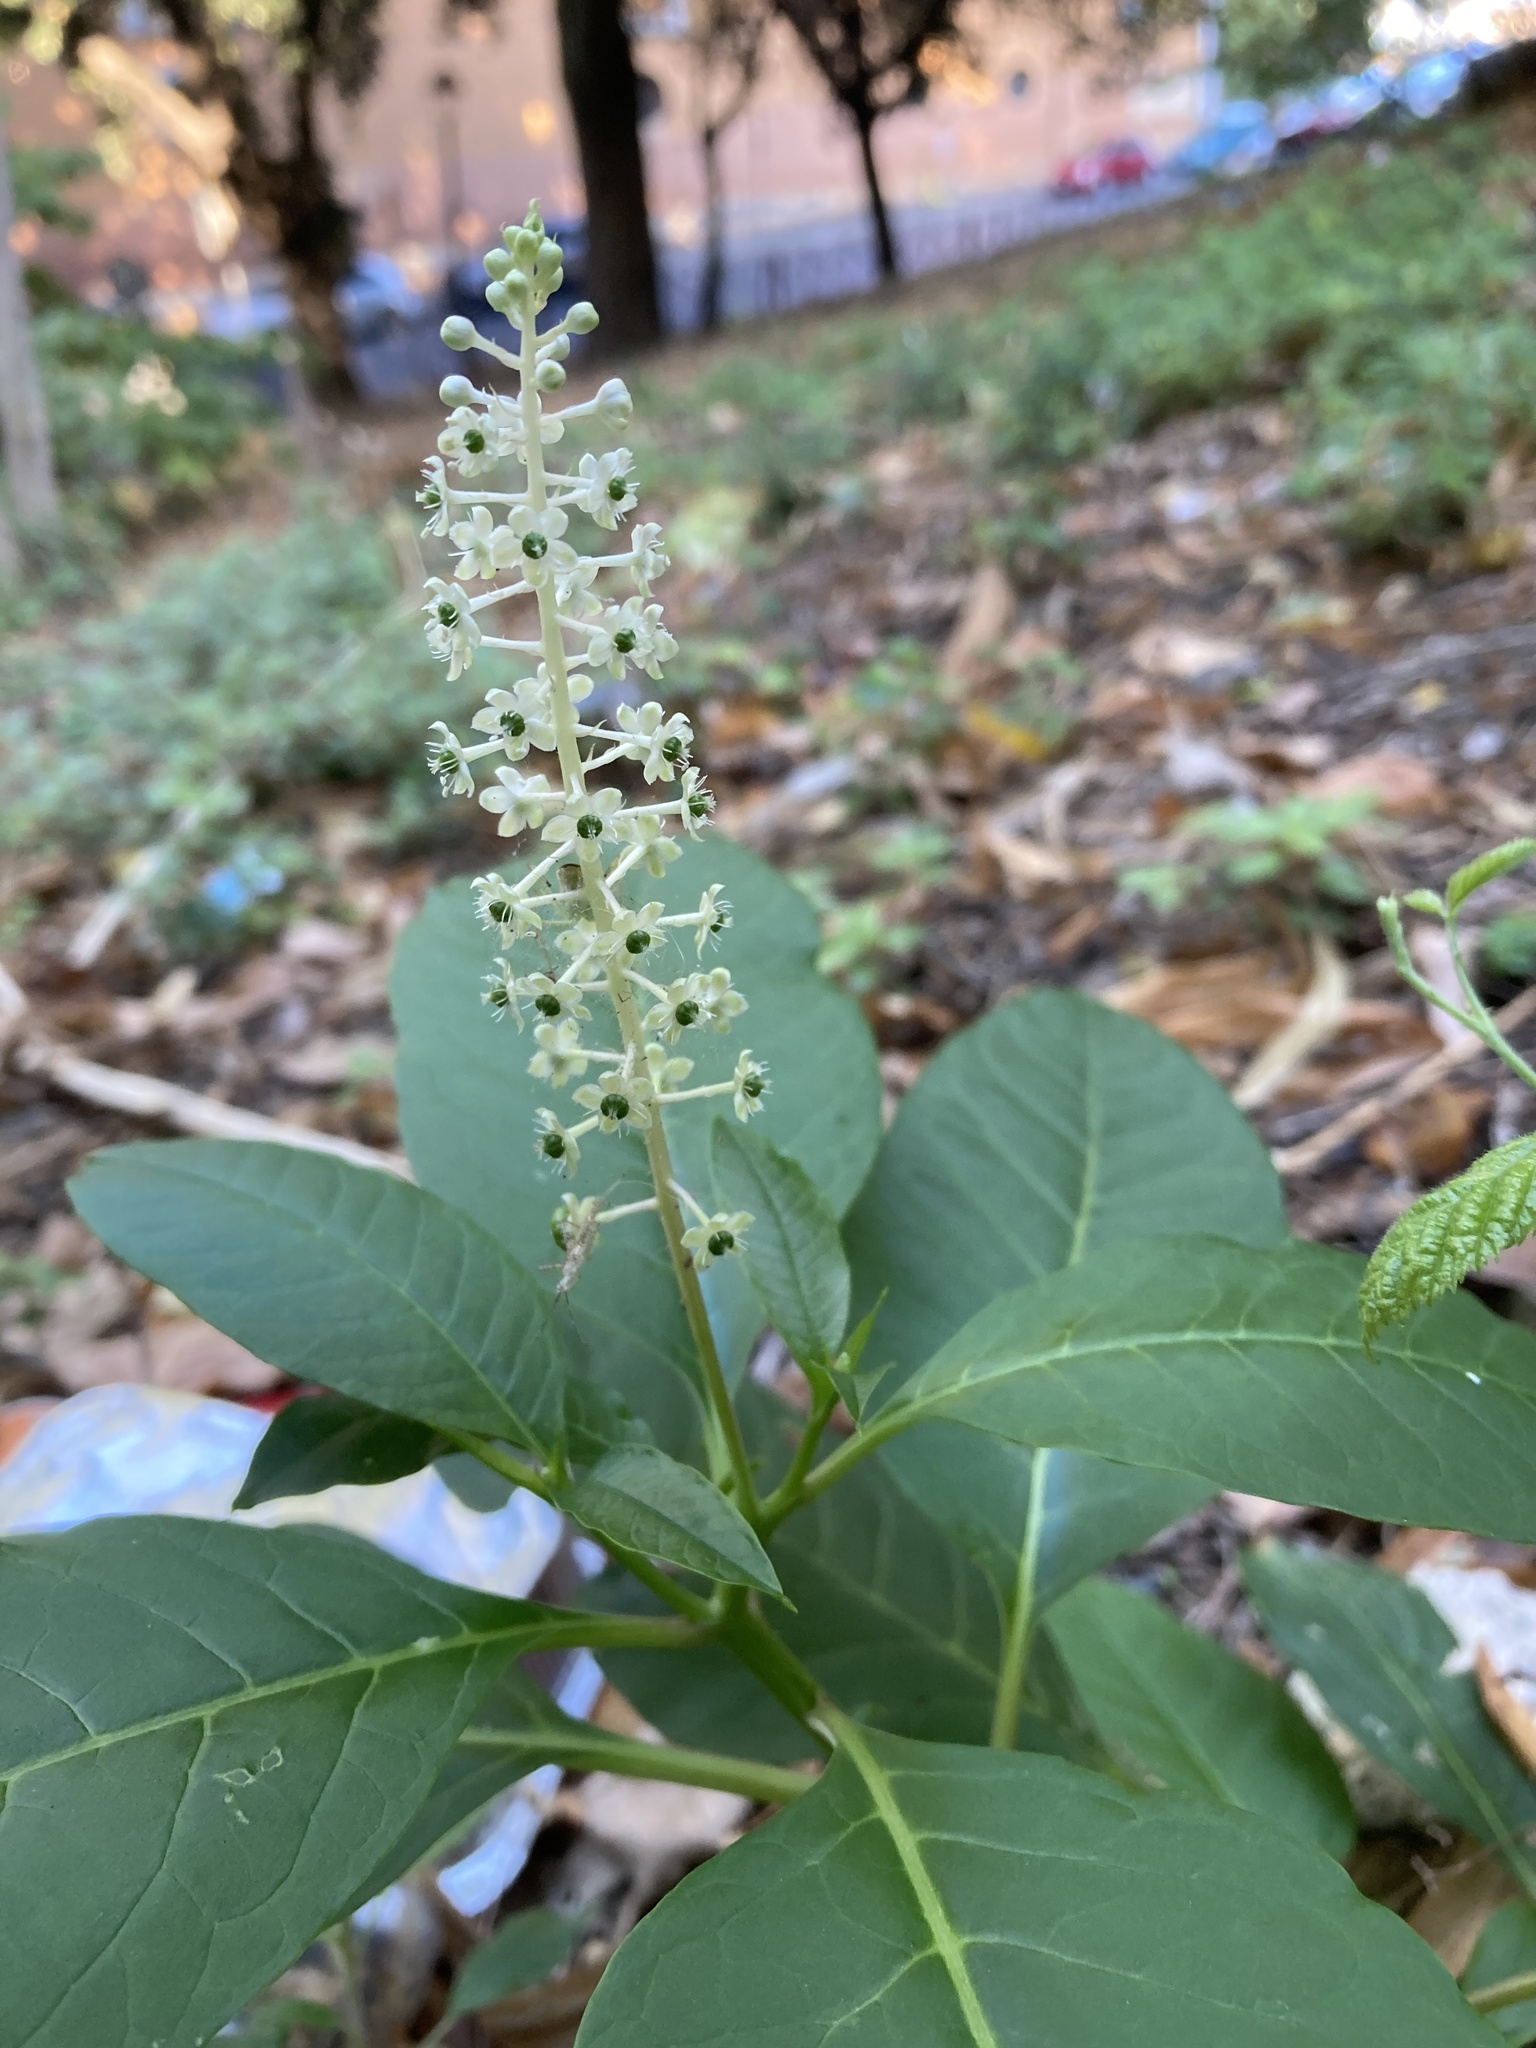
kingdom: Plantae
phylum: Tracheophyta
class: Magnoliopsida
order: Caryophyllales
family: Phytolaccaceae
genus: Phytolacca
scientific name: Phytolacca americana
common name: American pokeweed
